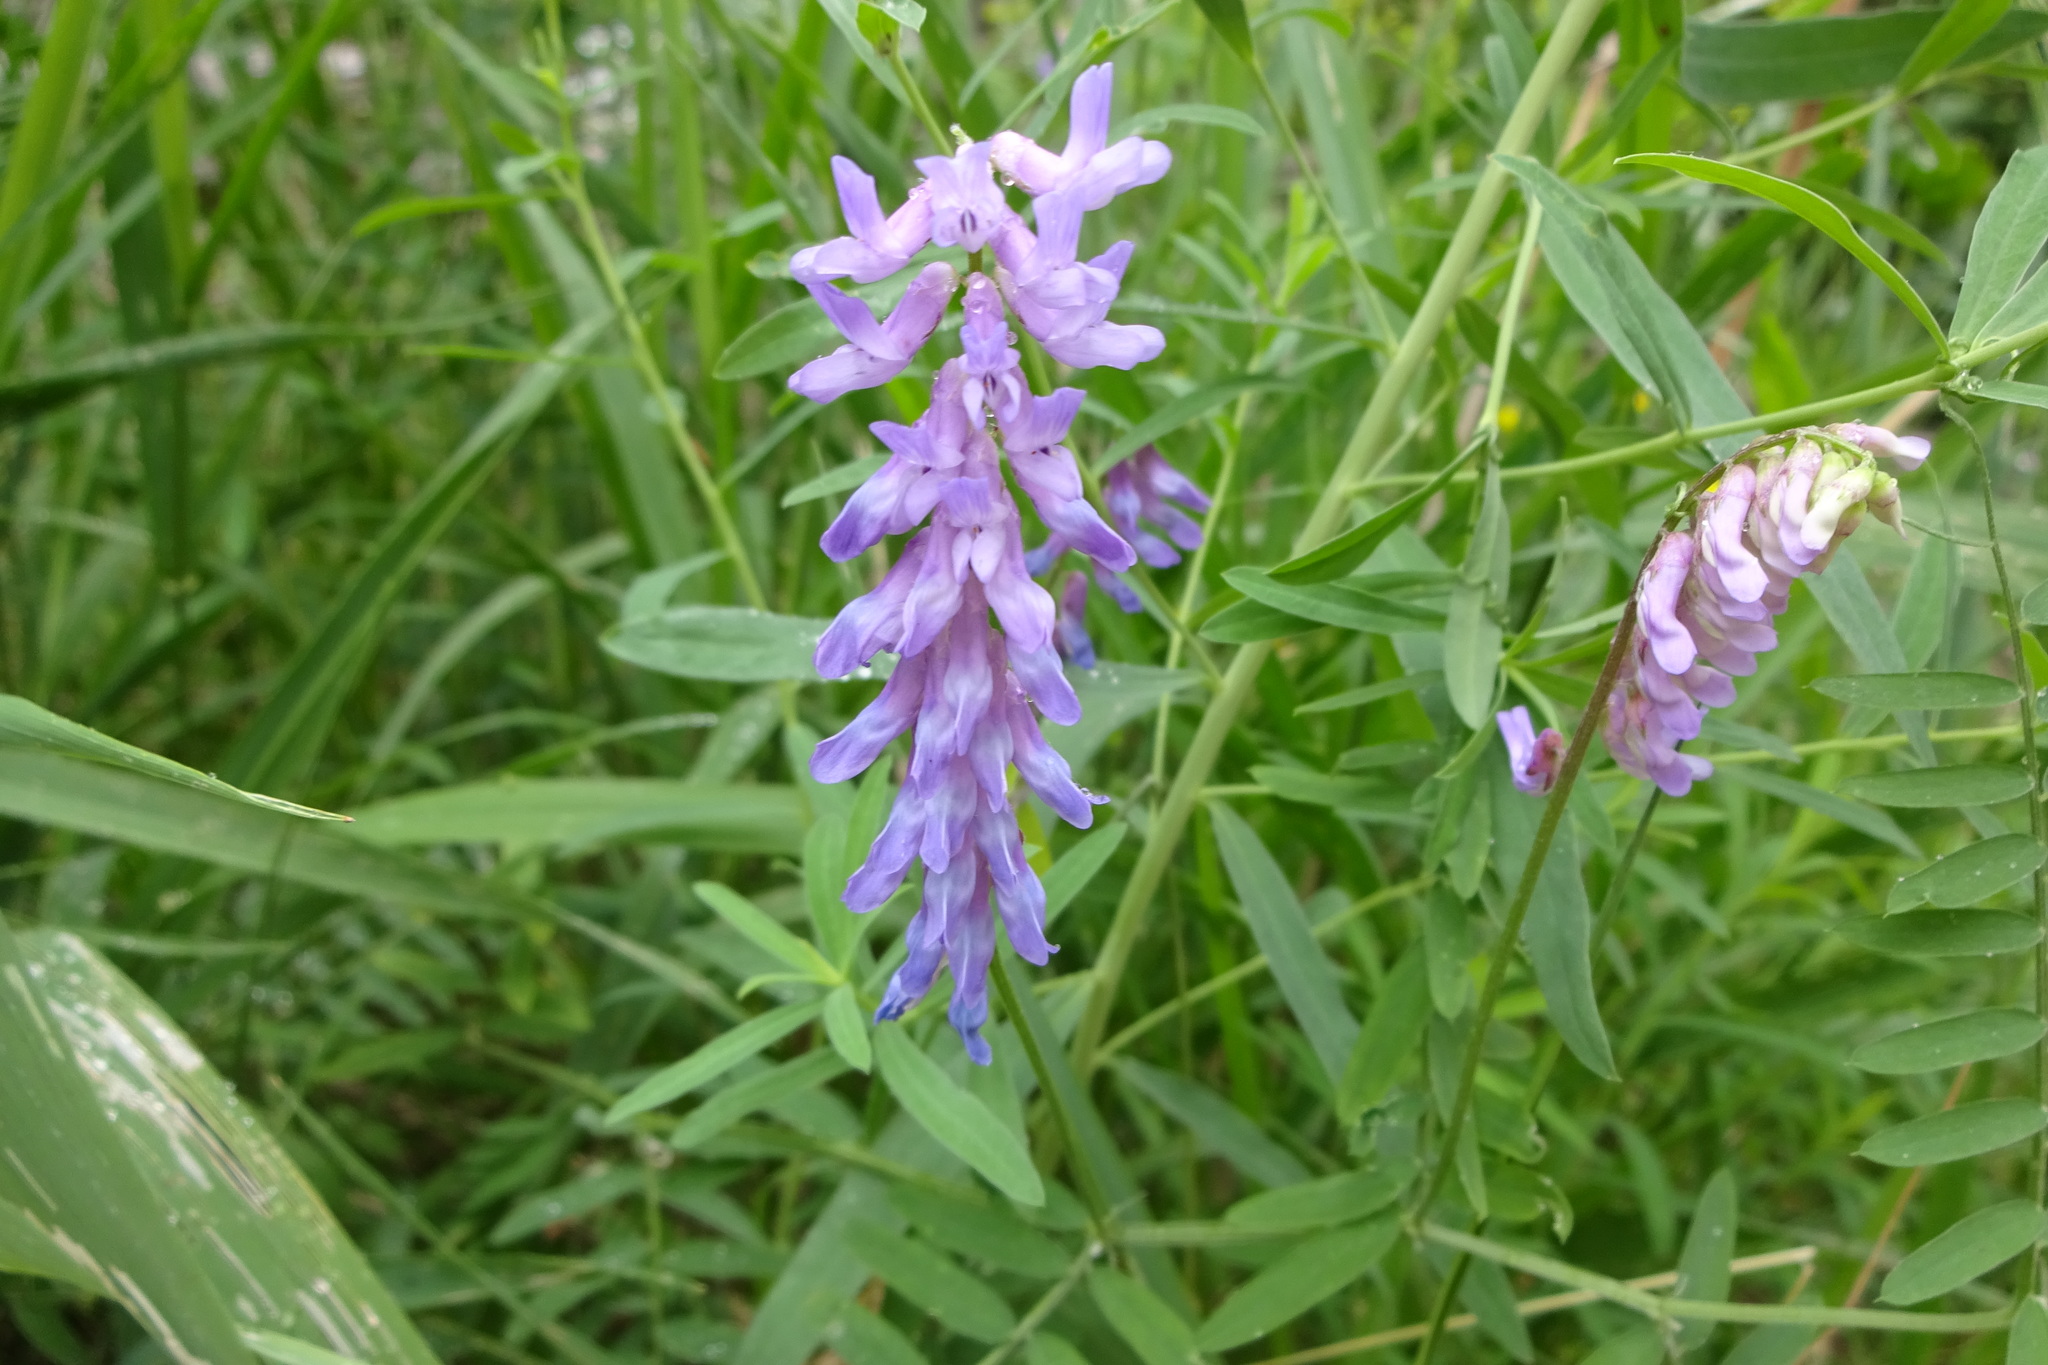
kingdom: Plantae
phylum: Tracheophyta
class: Magnoliopsida
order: Fabales
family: Fabaceae
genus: Vicia
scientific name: Vicia cracca
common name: Bird vetch
